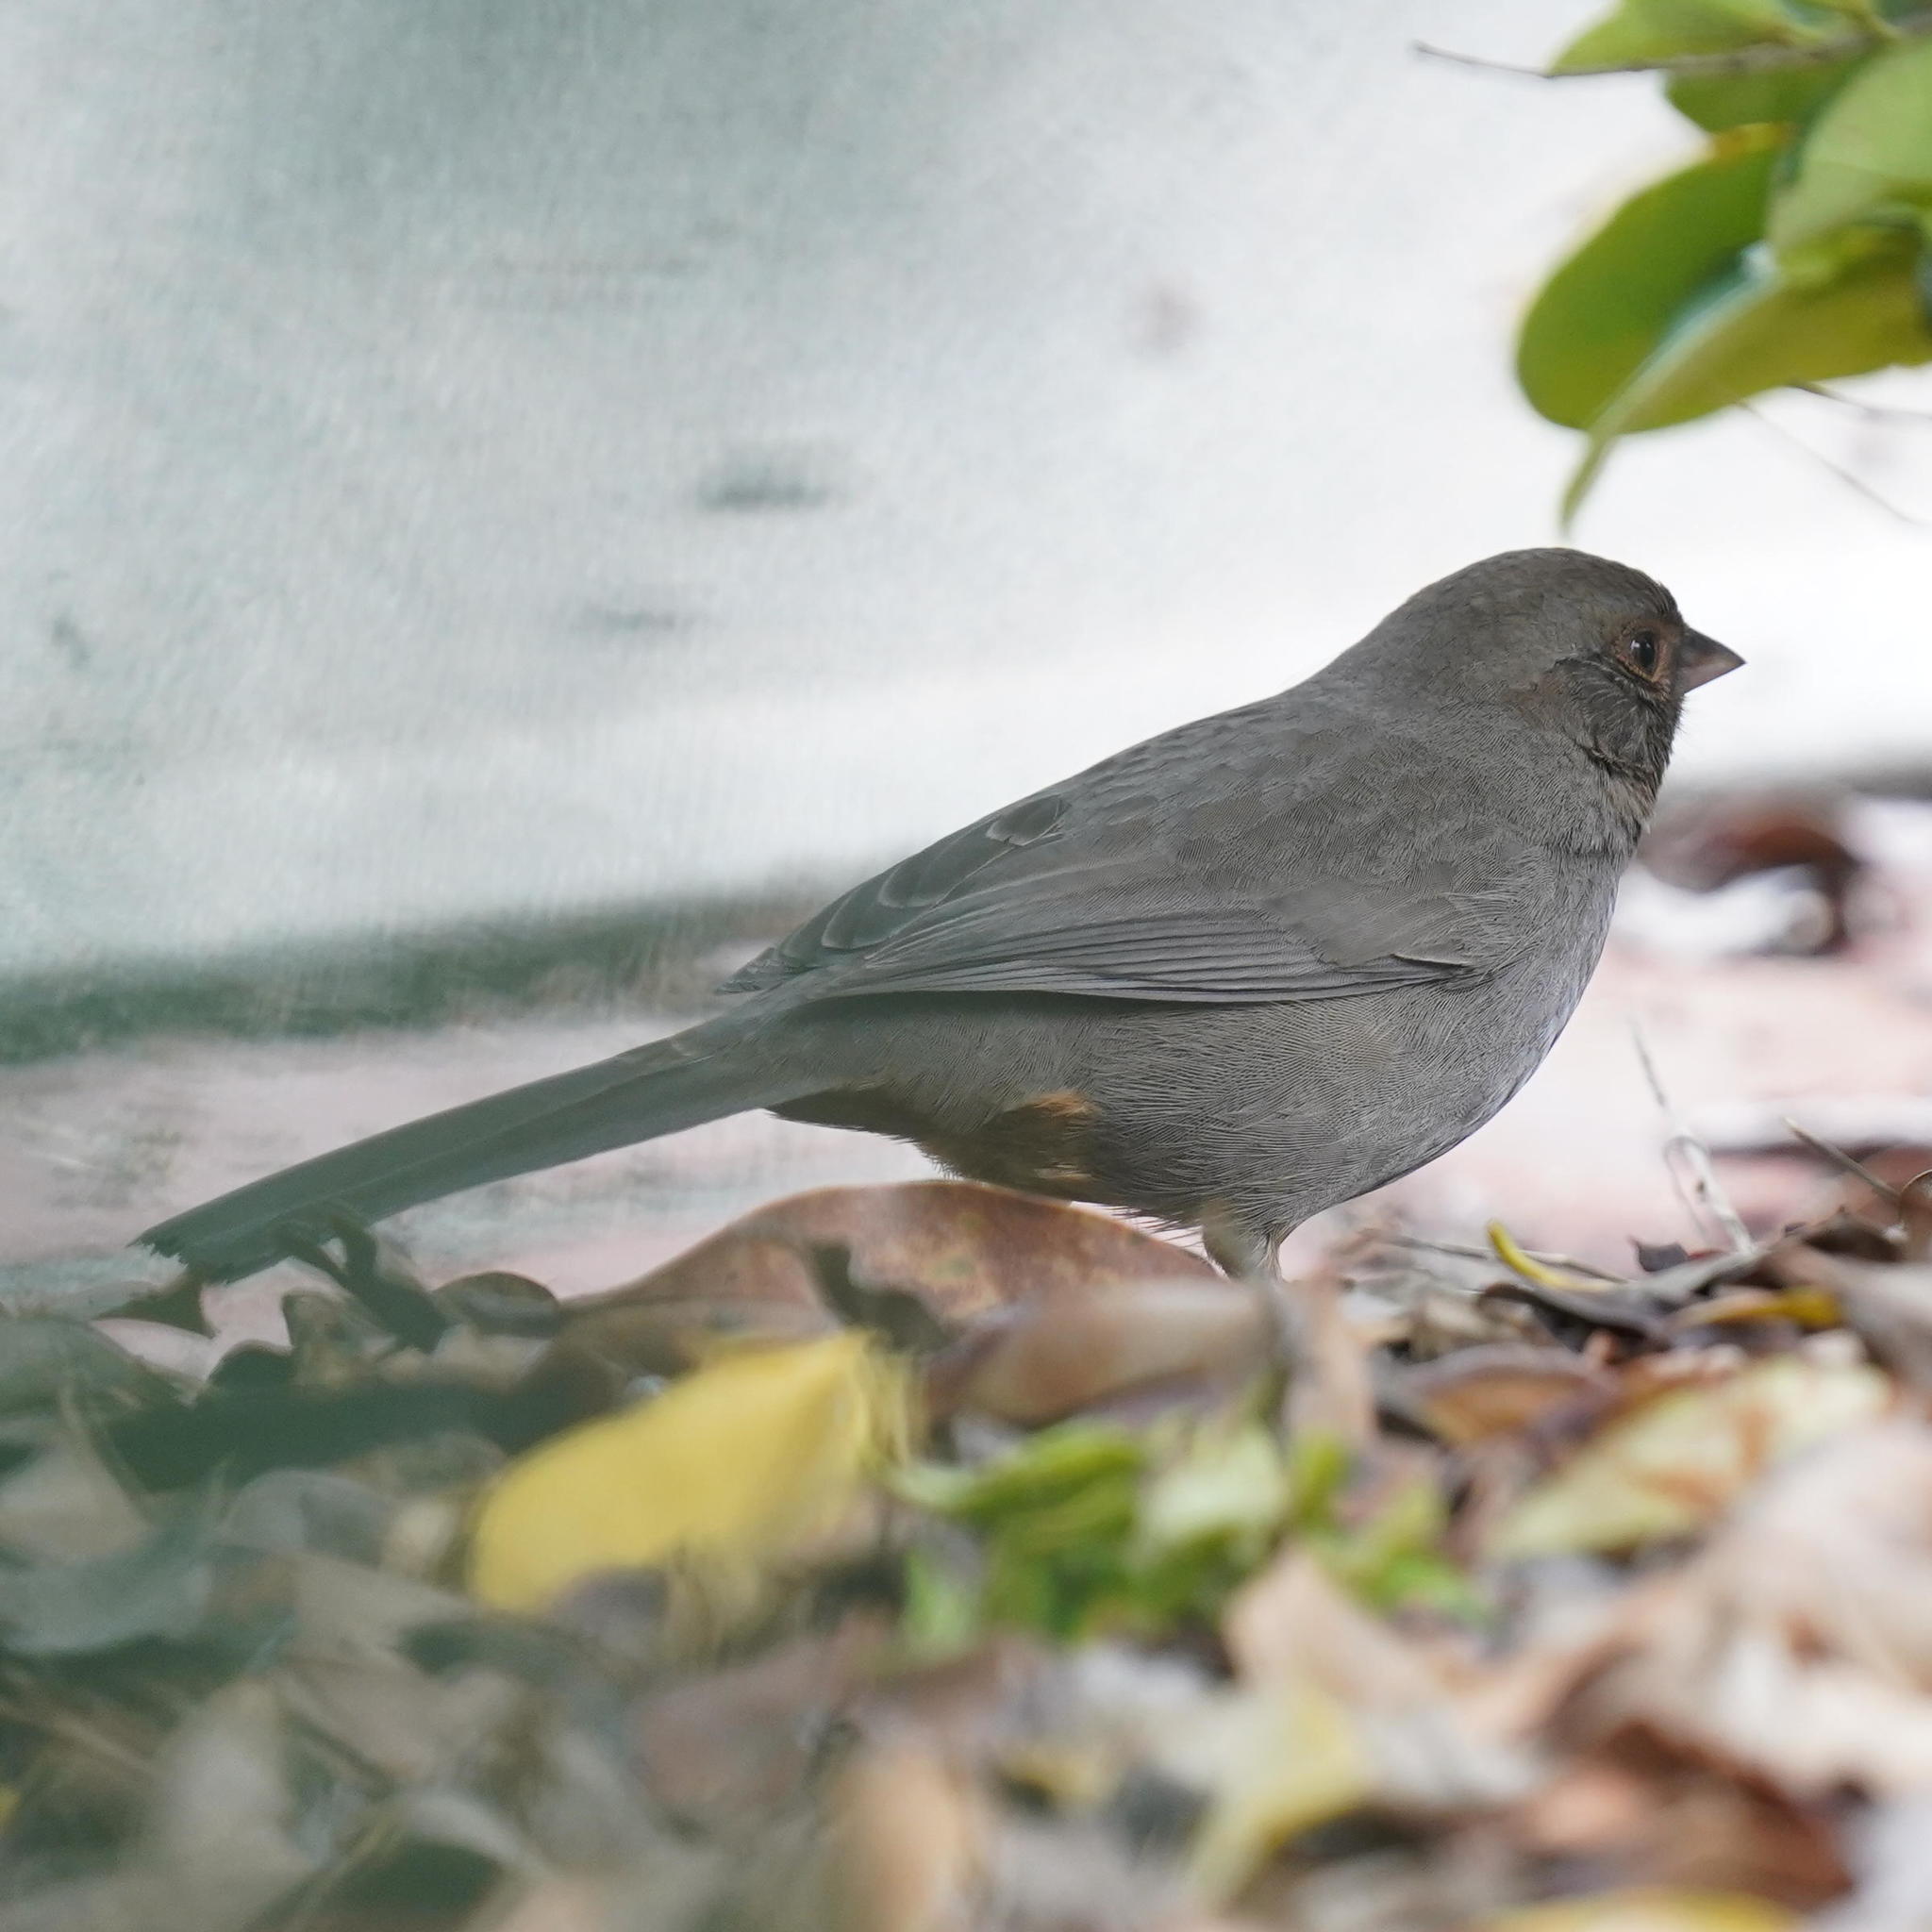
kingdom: Animalia
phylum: Chordata
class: Aves
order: Passeriformes
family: Passerellidae
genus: Melozone
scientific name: Melozone crissalis
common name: California towhee
